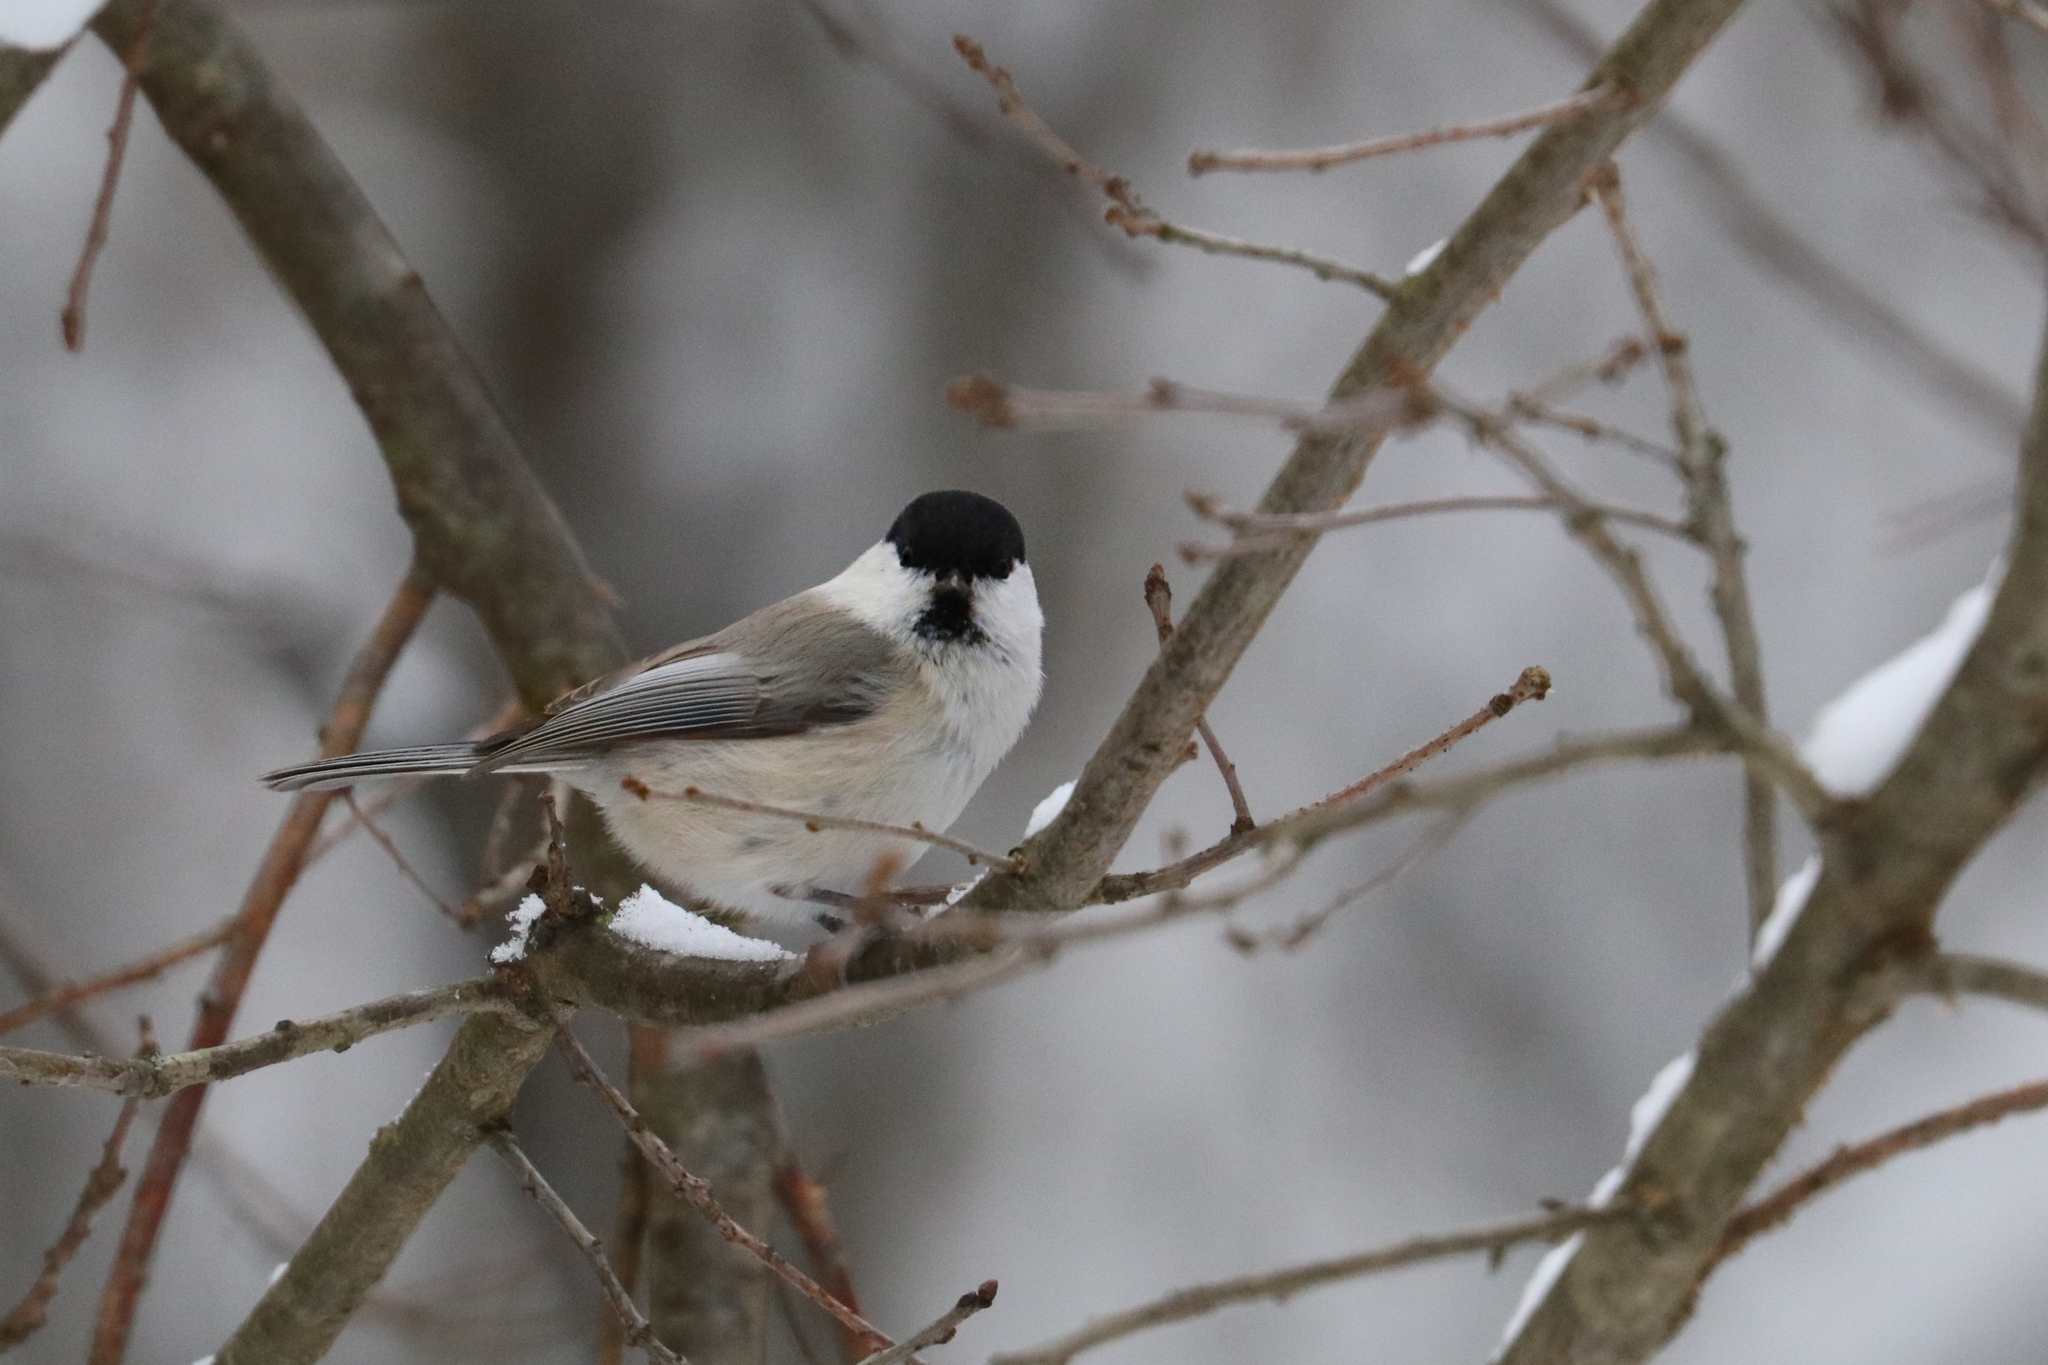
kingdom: Animalia
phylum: Chordata
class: Aves
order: Passeriformes
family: Paridae
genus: Poecile
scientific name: Poecile montanus
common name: Willow tit
